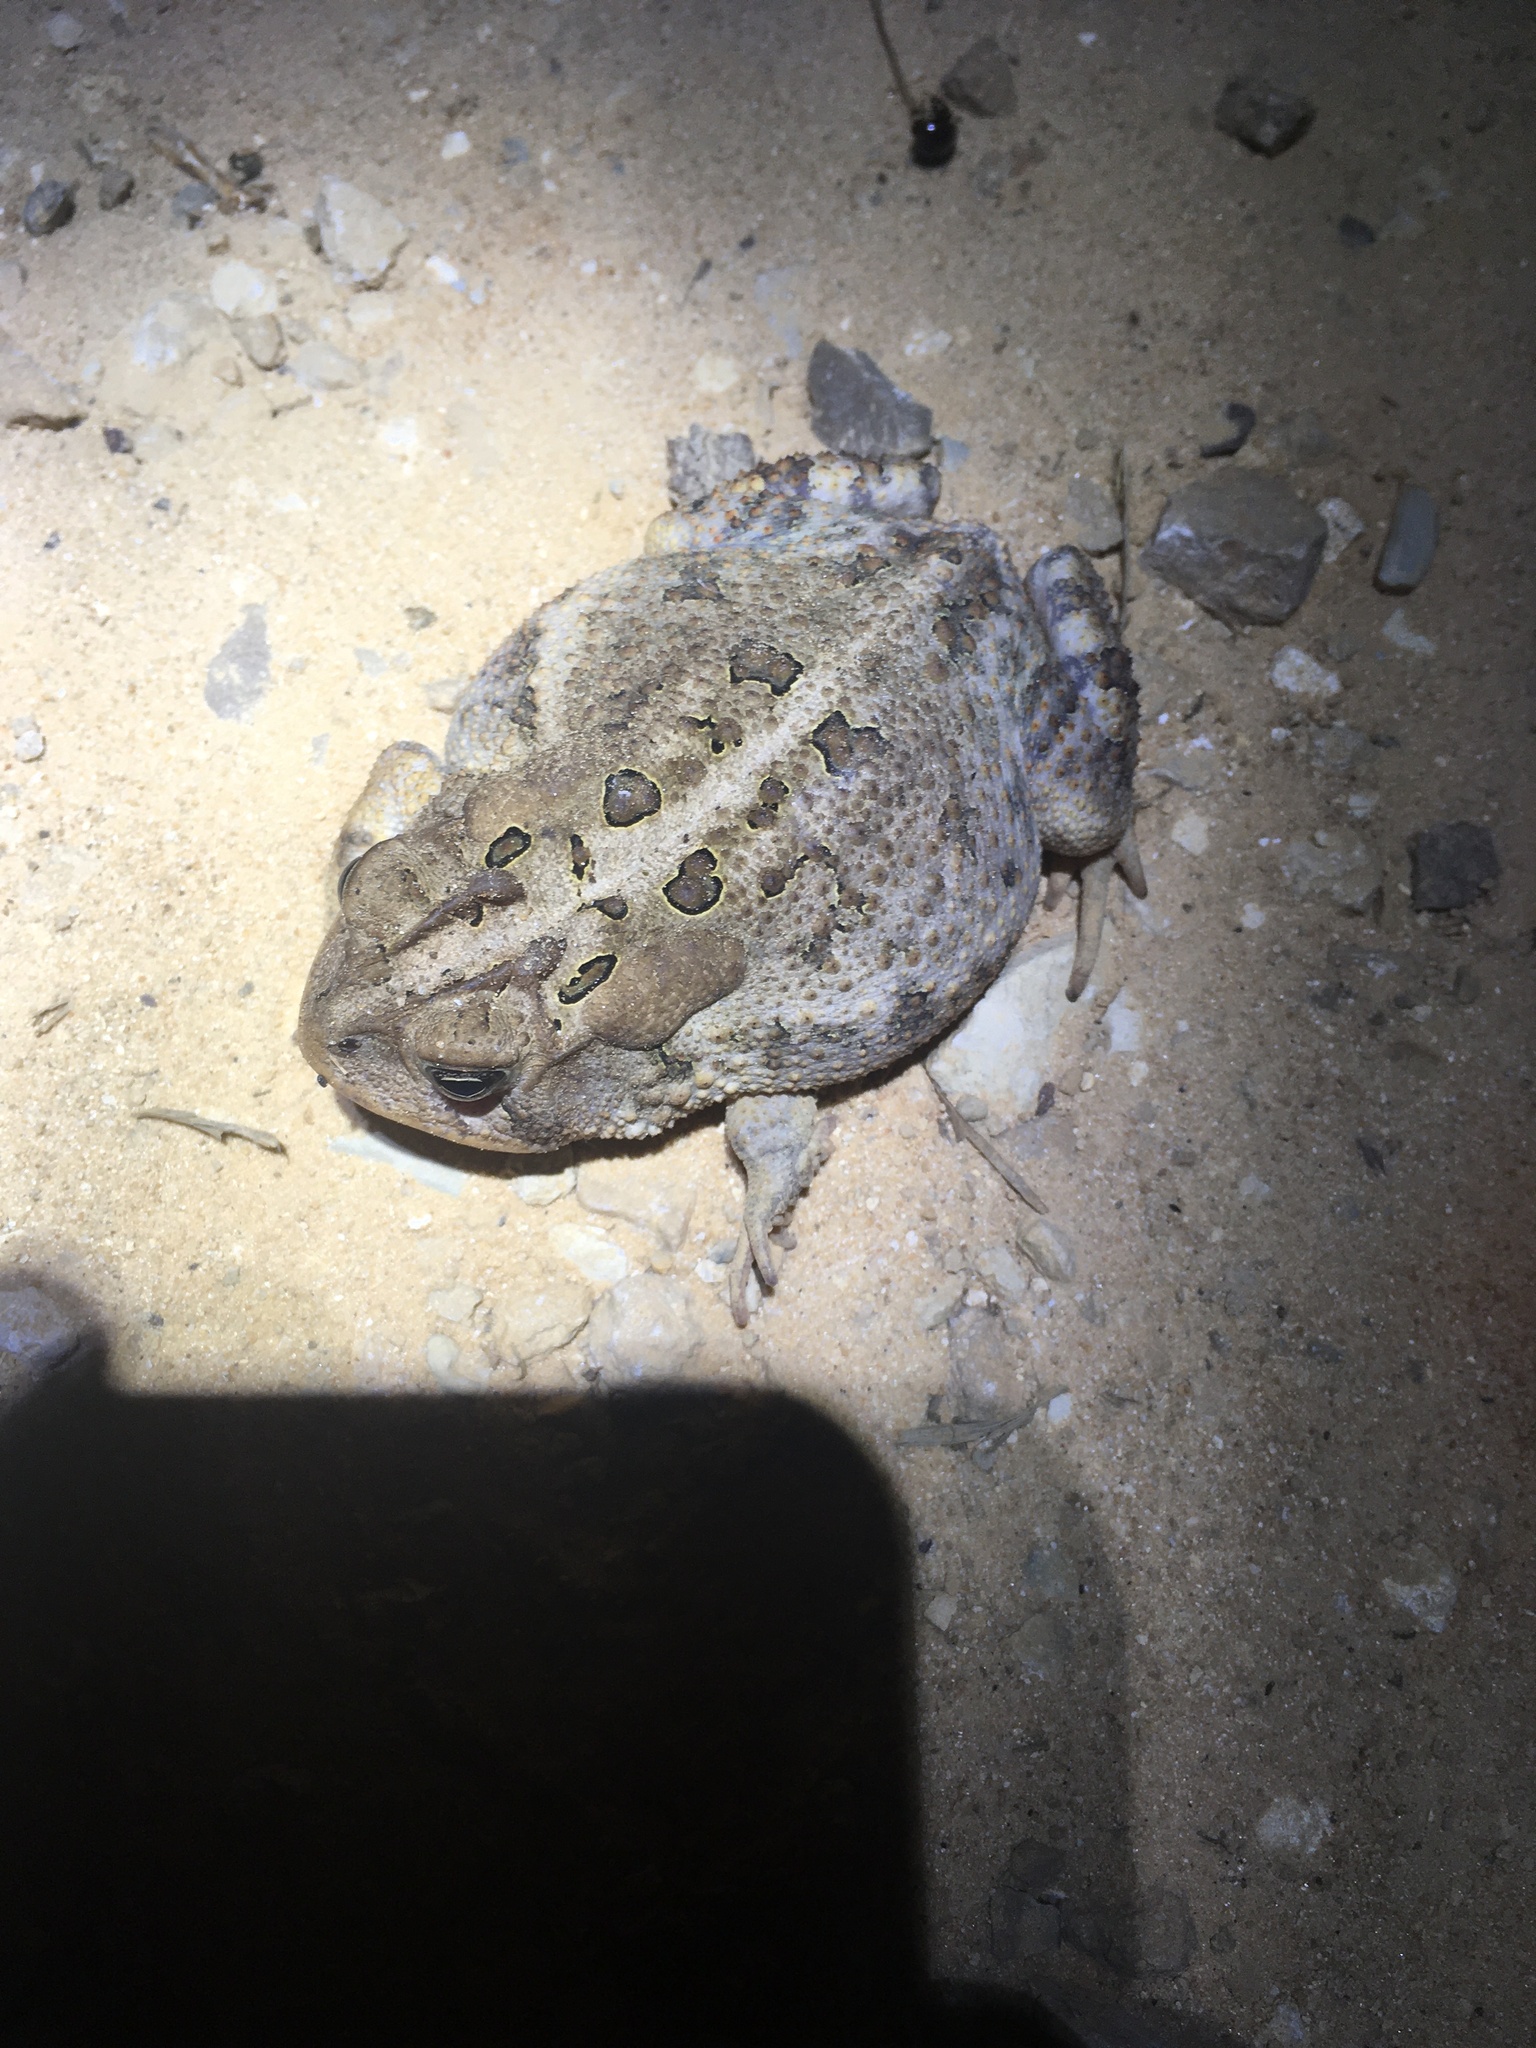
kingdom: Animalia
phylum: Chordata
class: Amphibia
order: Anura
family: Bufonidae
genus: Anaxyrus
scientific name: Anaxyrus terrestris
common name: Southern toad
